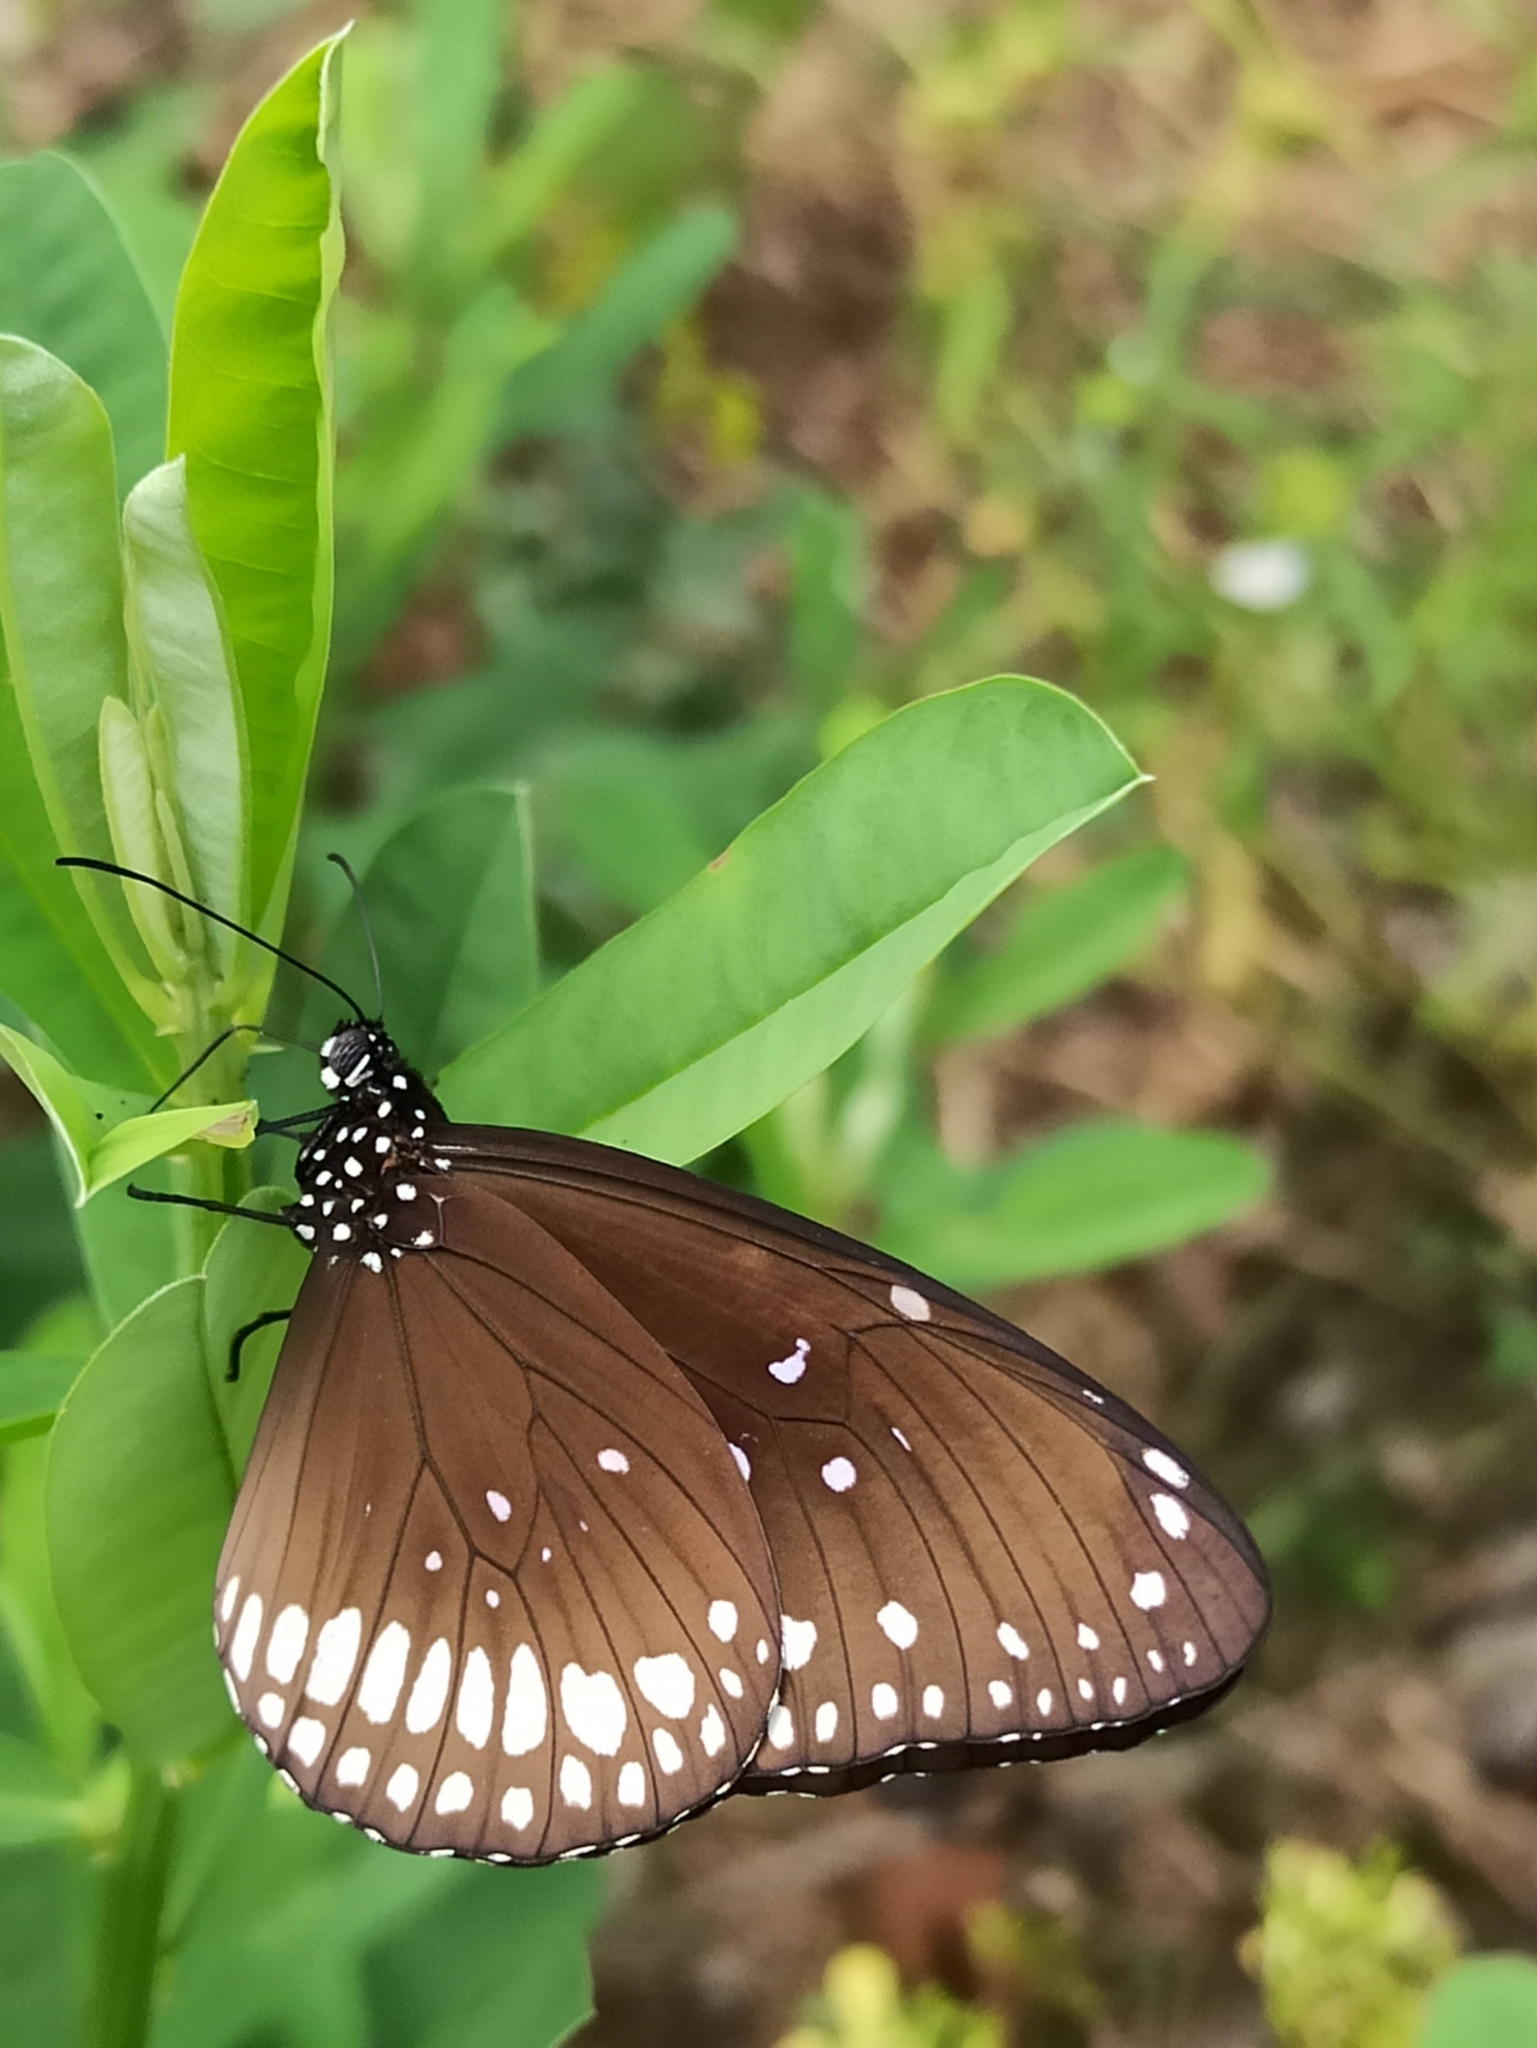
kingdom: Animalia
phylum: Arthropoda
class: Insecta
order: Lepidoptera
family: Nymphalidae
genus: Euploea
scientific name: Euploea core
